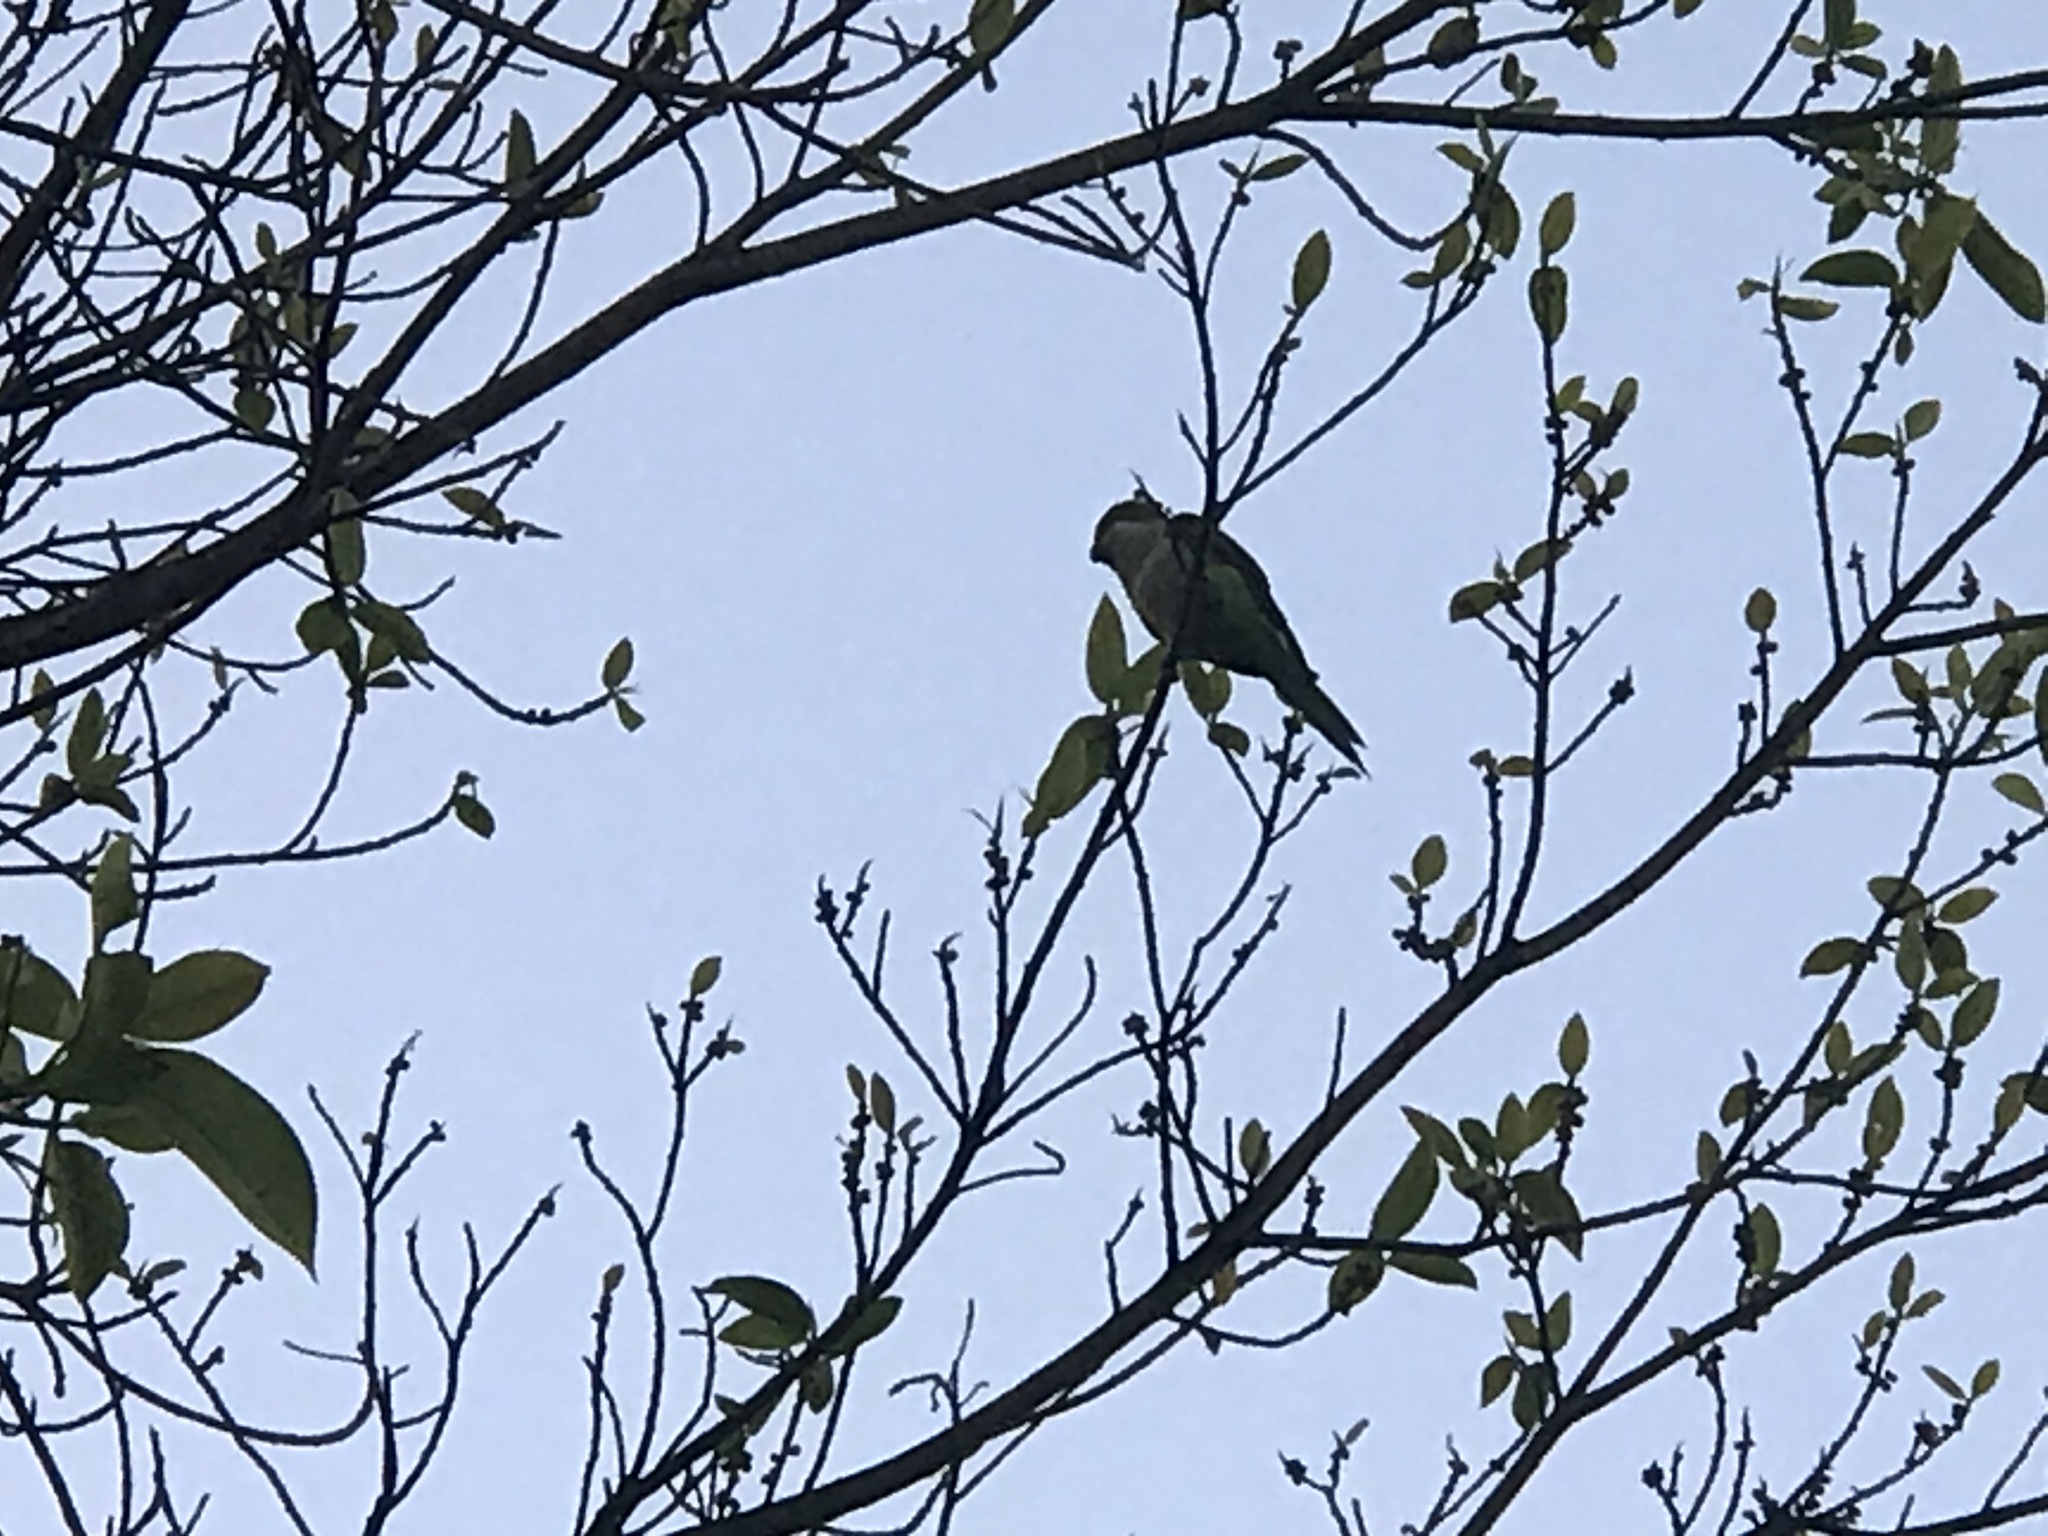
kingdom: Animalia
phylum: Chordata
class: Aves
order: Psittaciformes
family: Psittacidae
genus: Myiopsitta
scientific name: Myiopsitta monachus
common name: Monk parakeet
